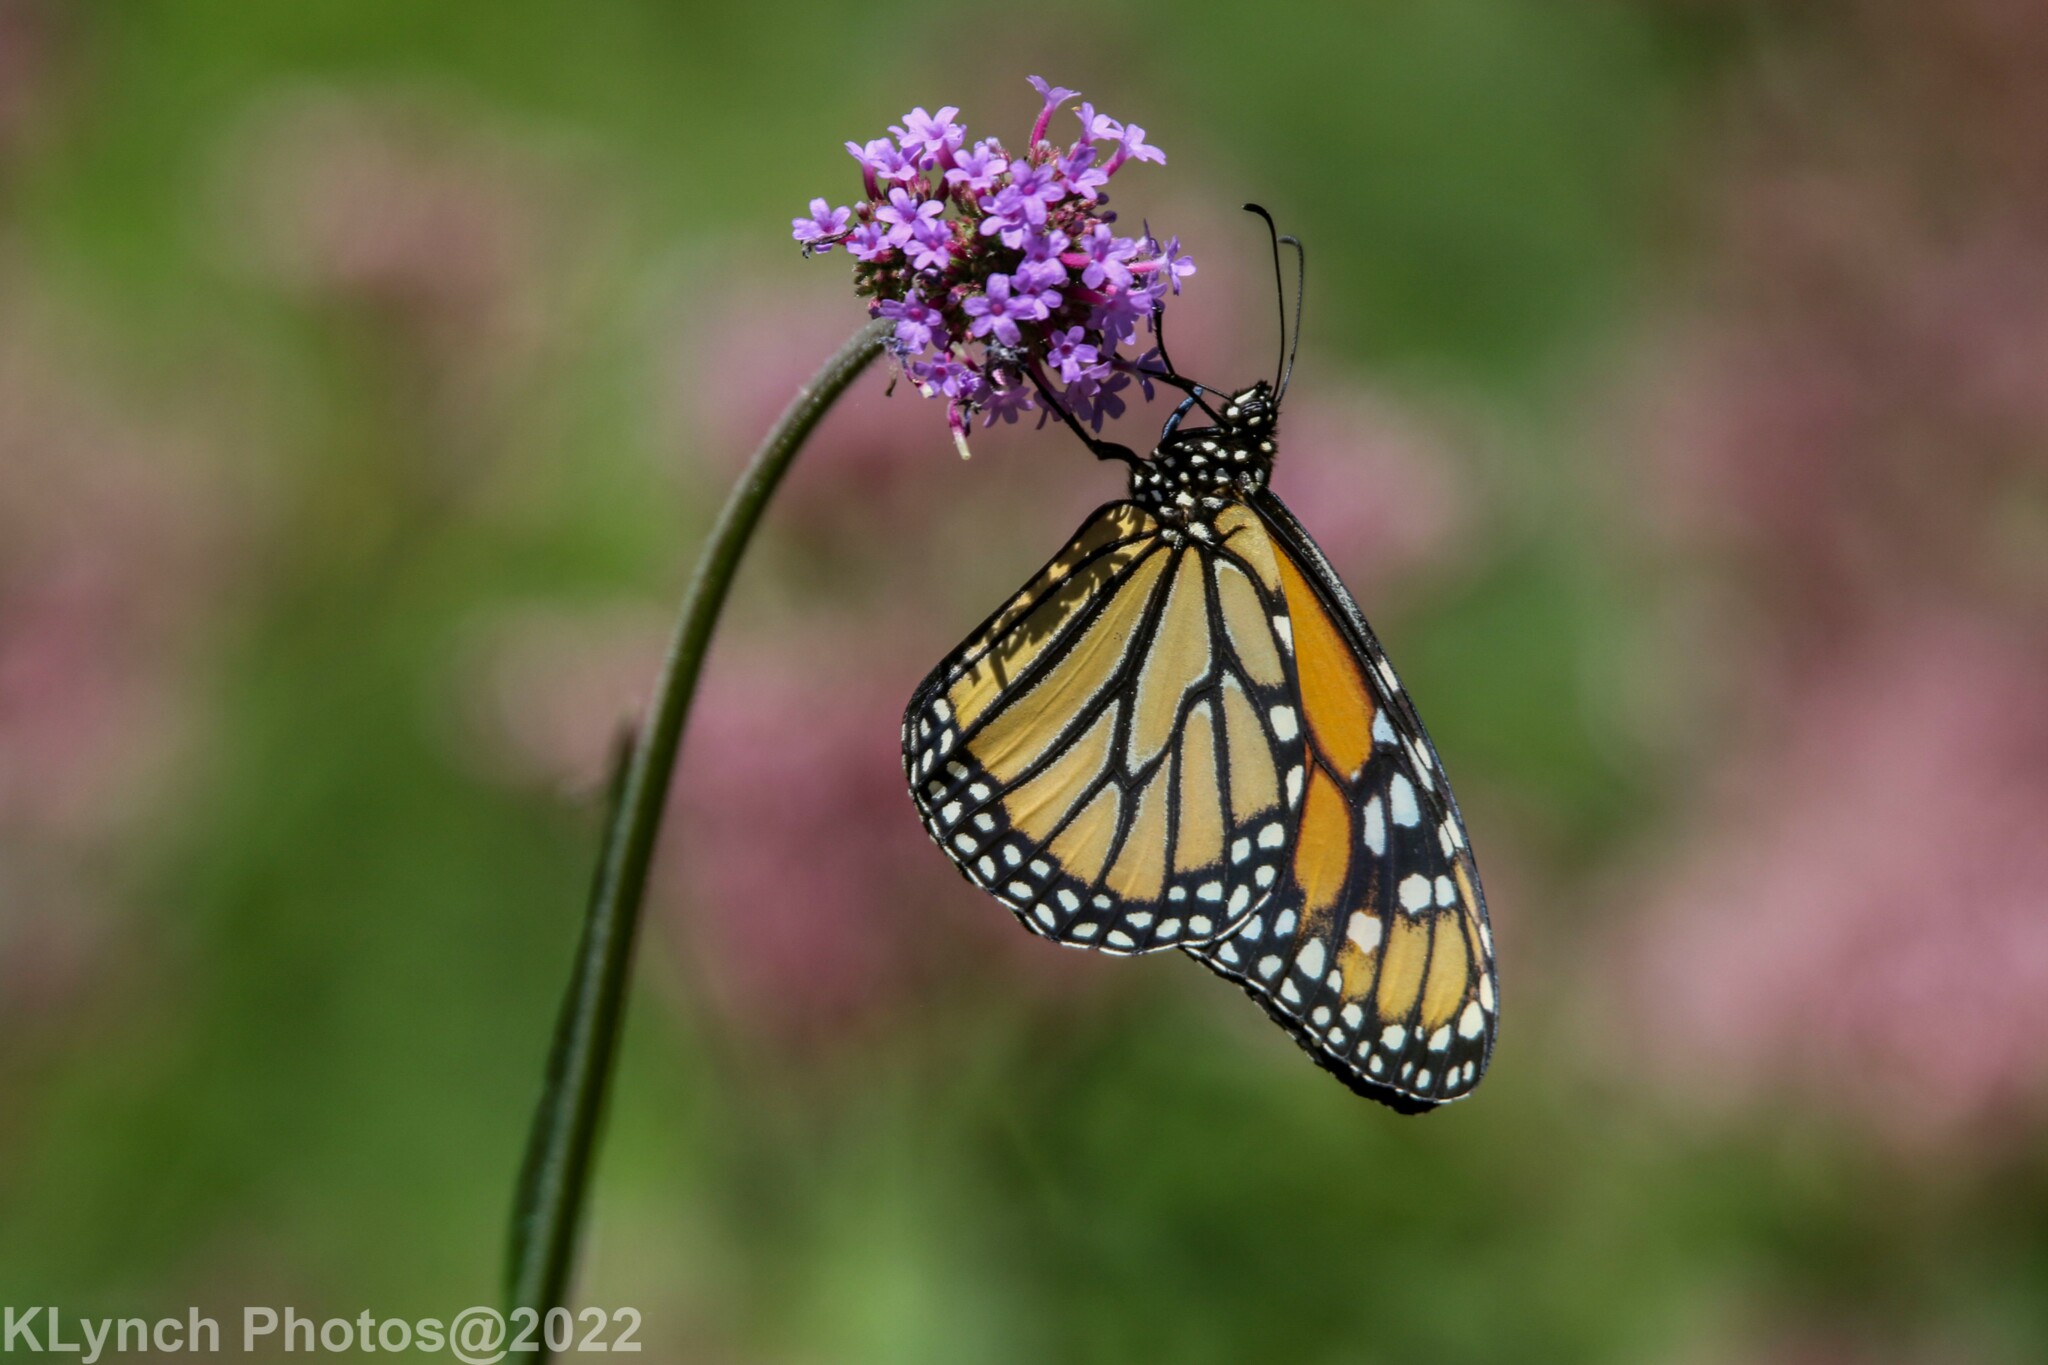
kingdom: Animalia
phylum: Arthropoda
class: Insecta
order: Lepidoptera
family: Nymphalidae
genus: Danaus
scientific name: Danaus plexippus
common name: Monarch
